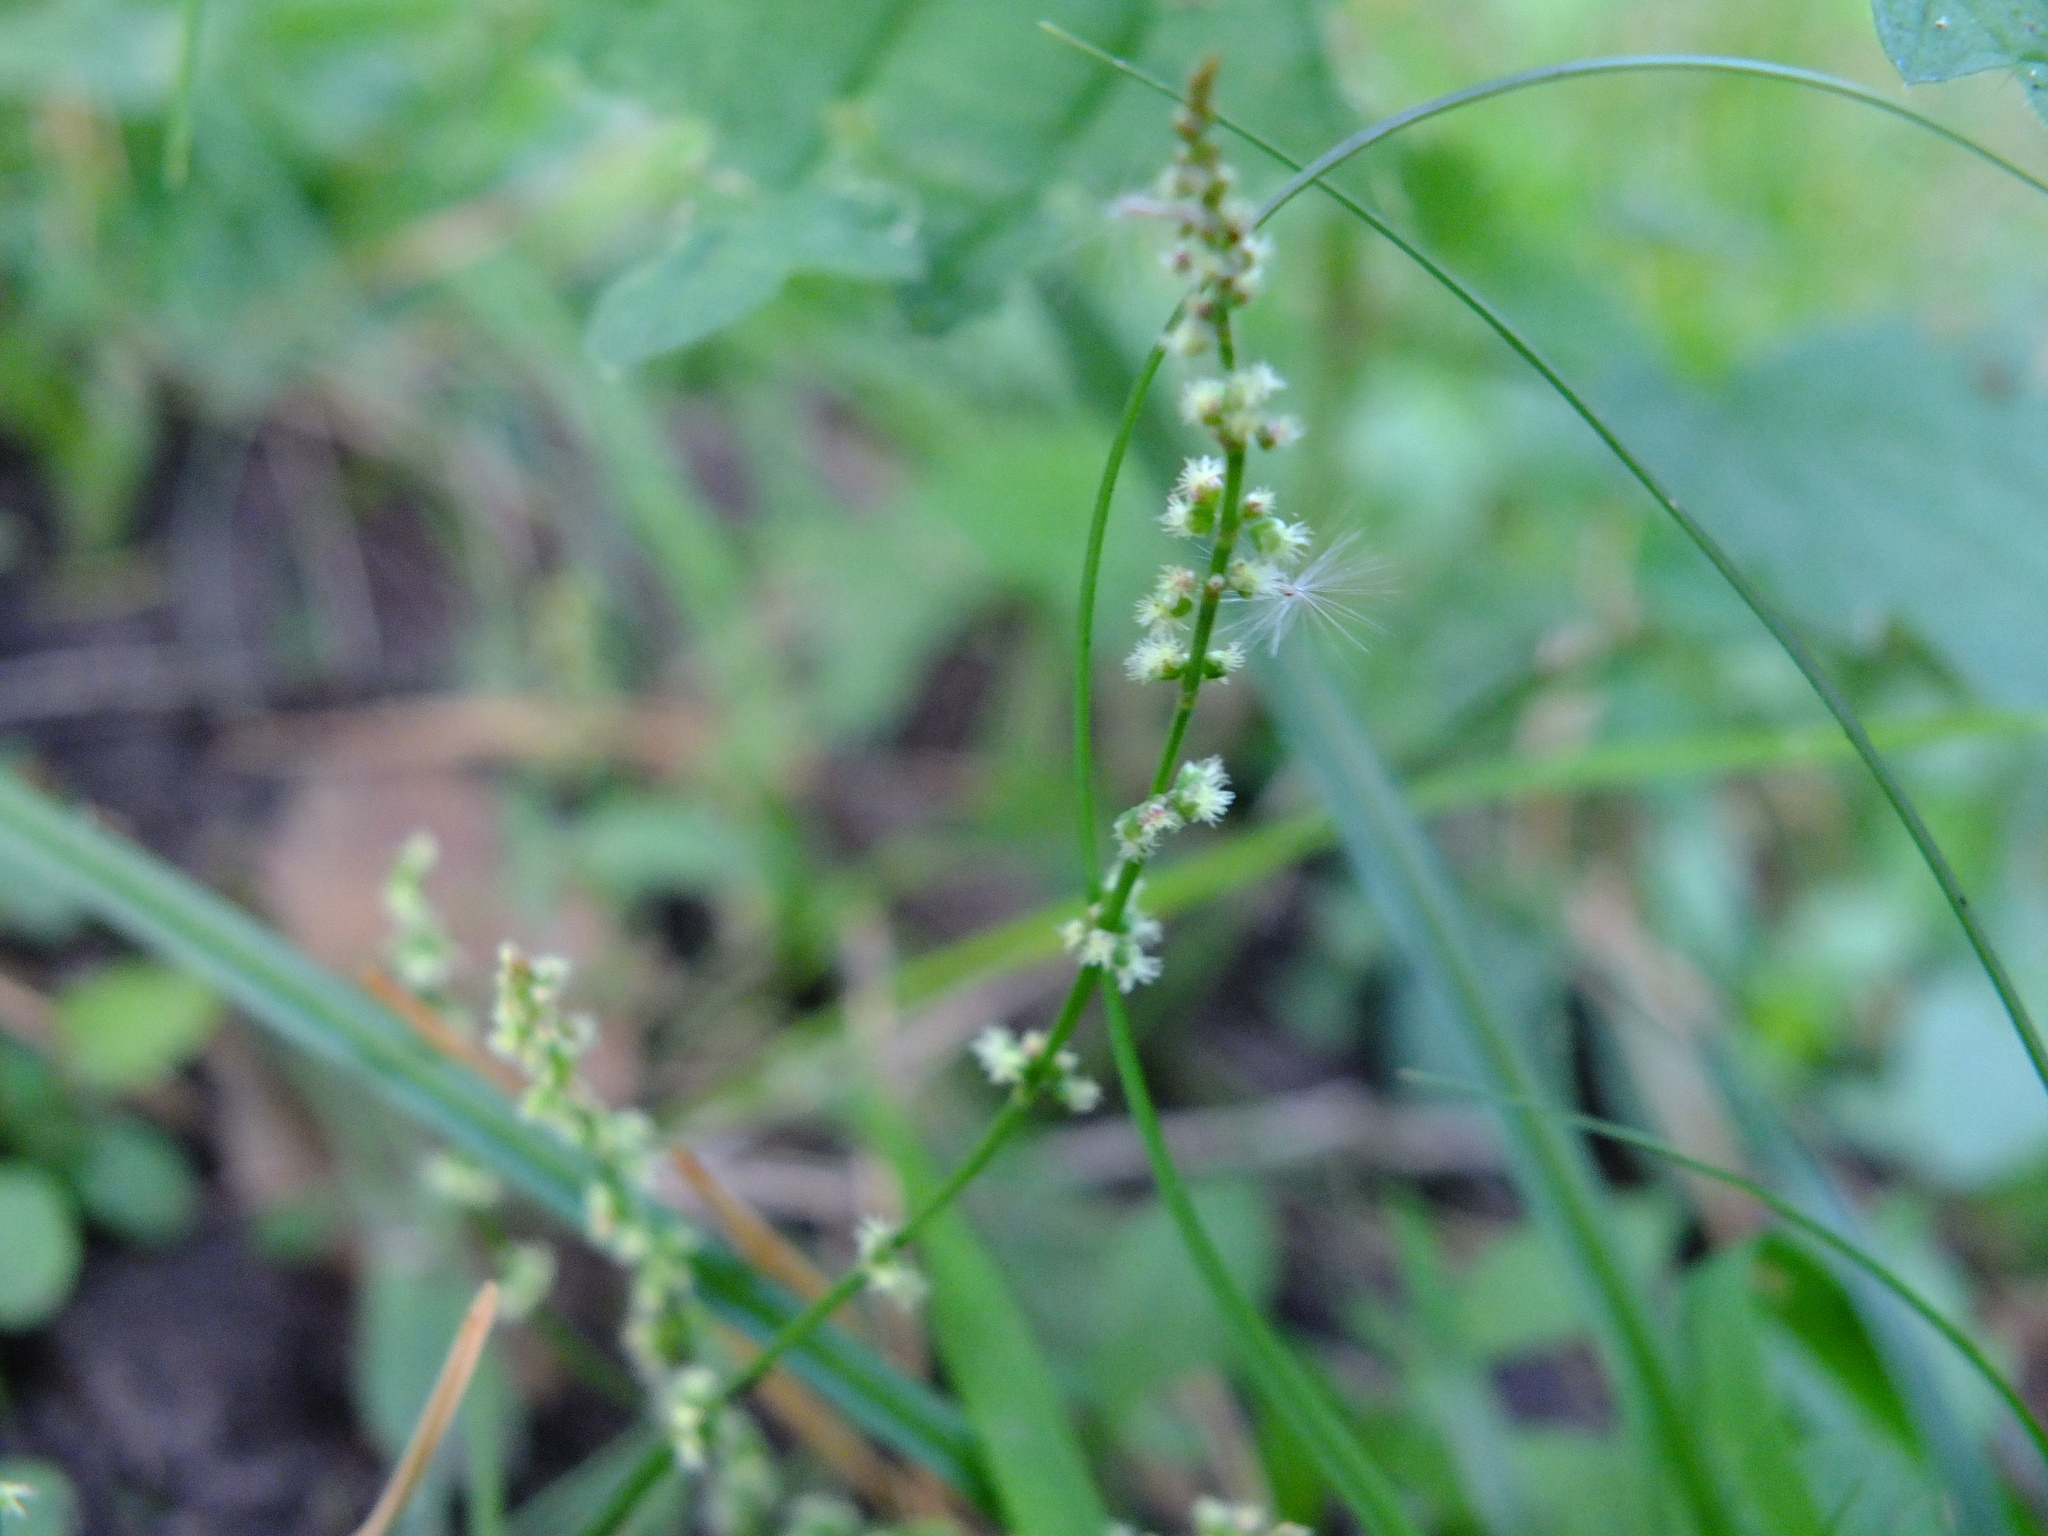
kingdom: Plantae
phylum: Tracheophyta
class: Magnoliopsida
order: Caryophyllales
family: Polygonaceae
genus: Rumex
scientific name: Rumex acetosella
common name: Common sheep sorrel
